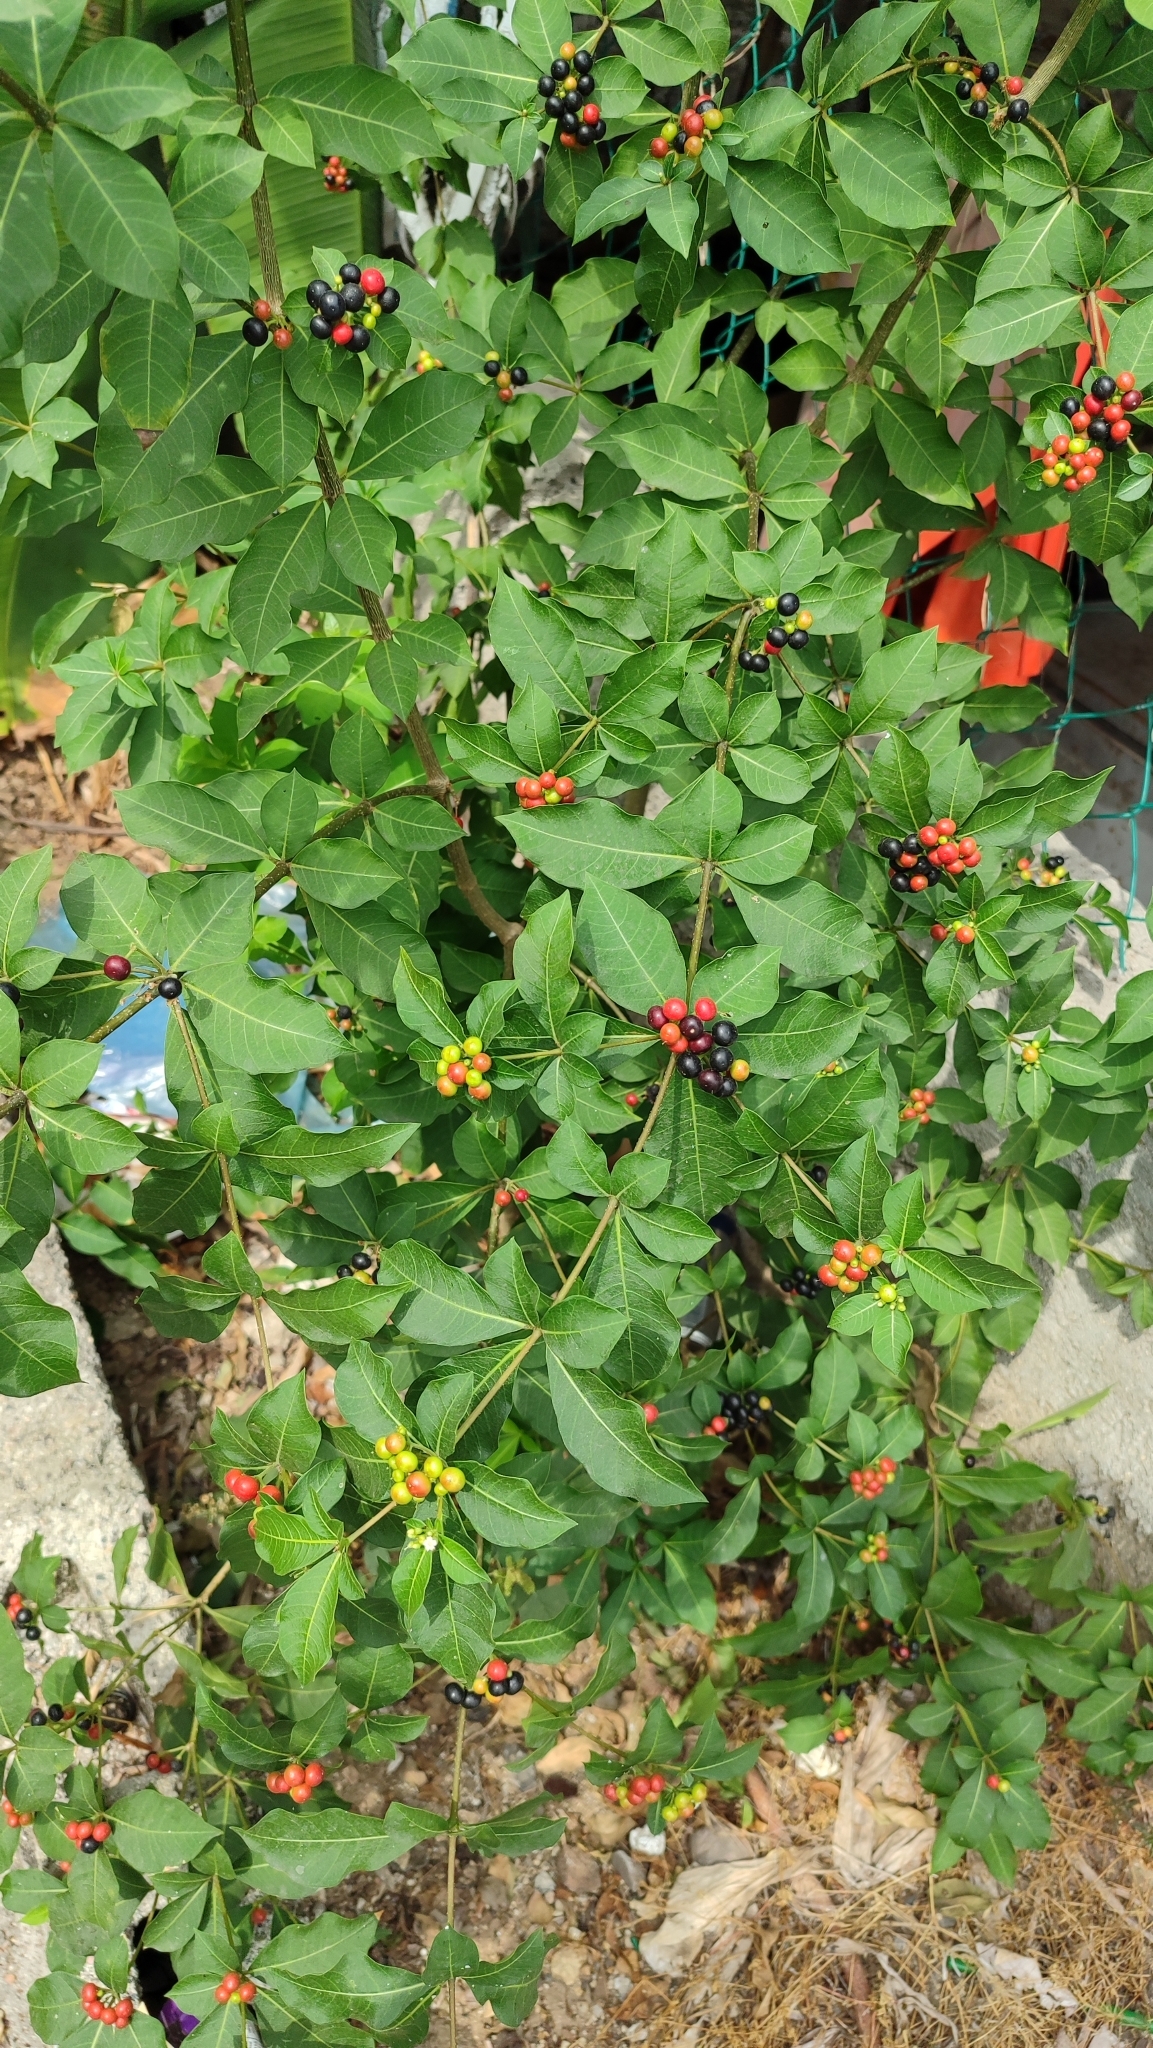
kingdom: Plantae
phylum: Tracheophyta
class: Magnoliopsida
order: Gentianales
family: Apocynaceae
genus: Rauvolfia
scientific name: Rauvolfia tetraphylla
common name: Four-leaf devil-pepper
